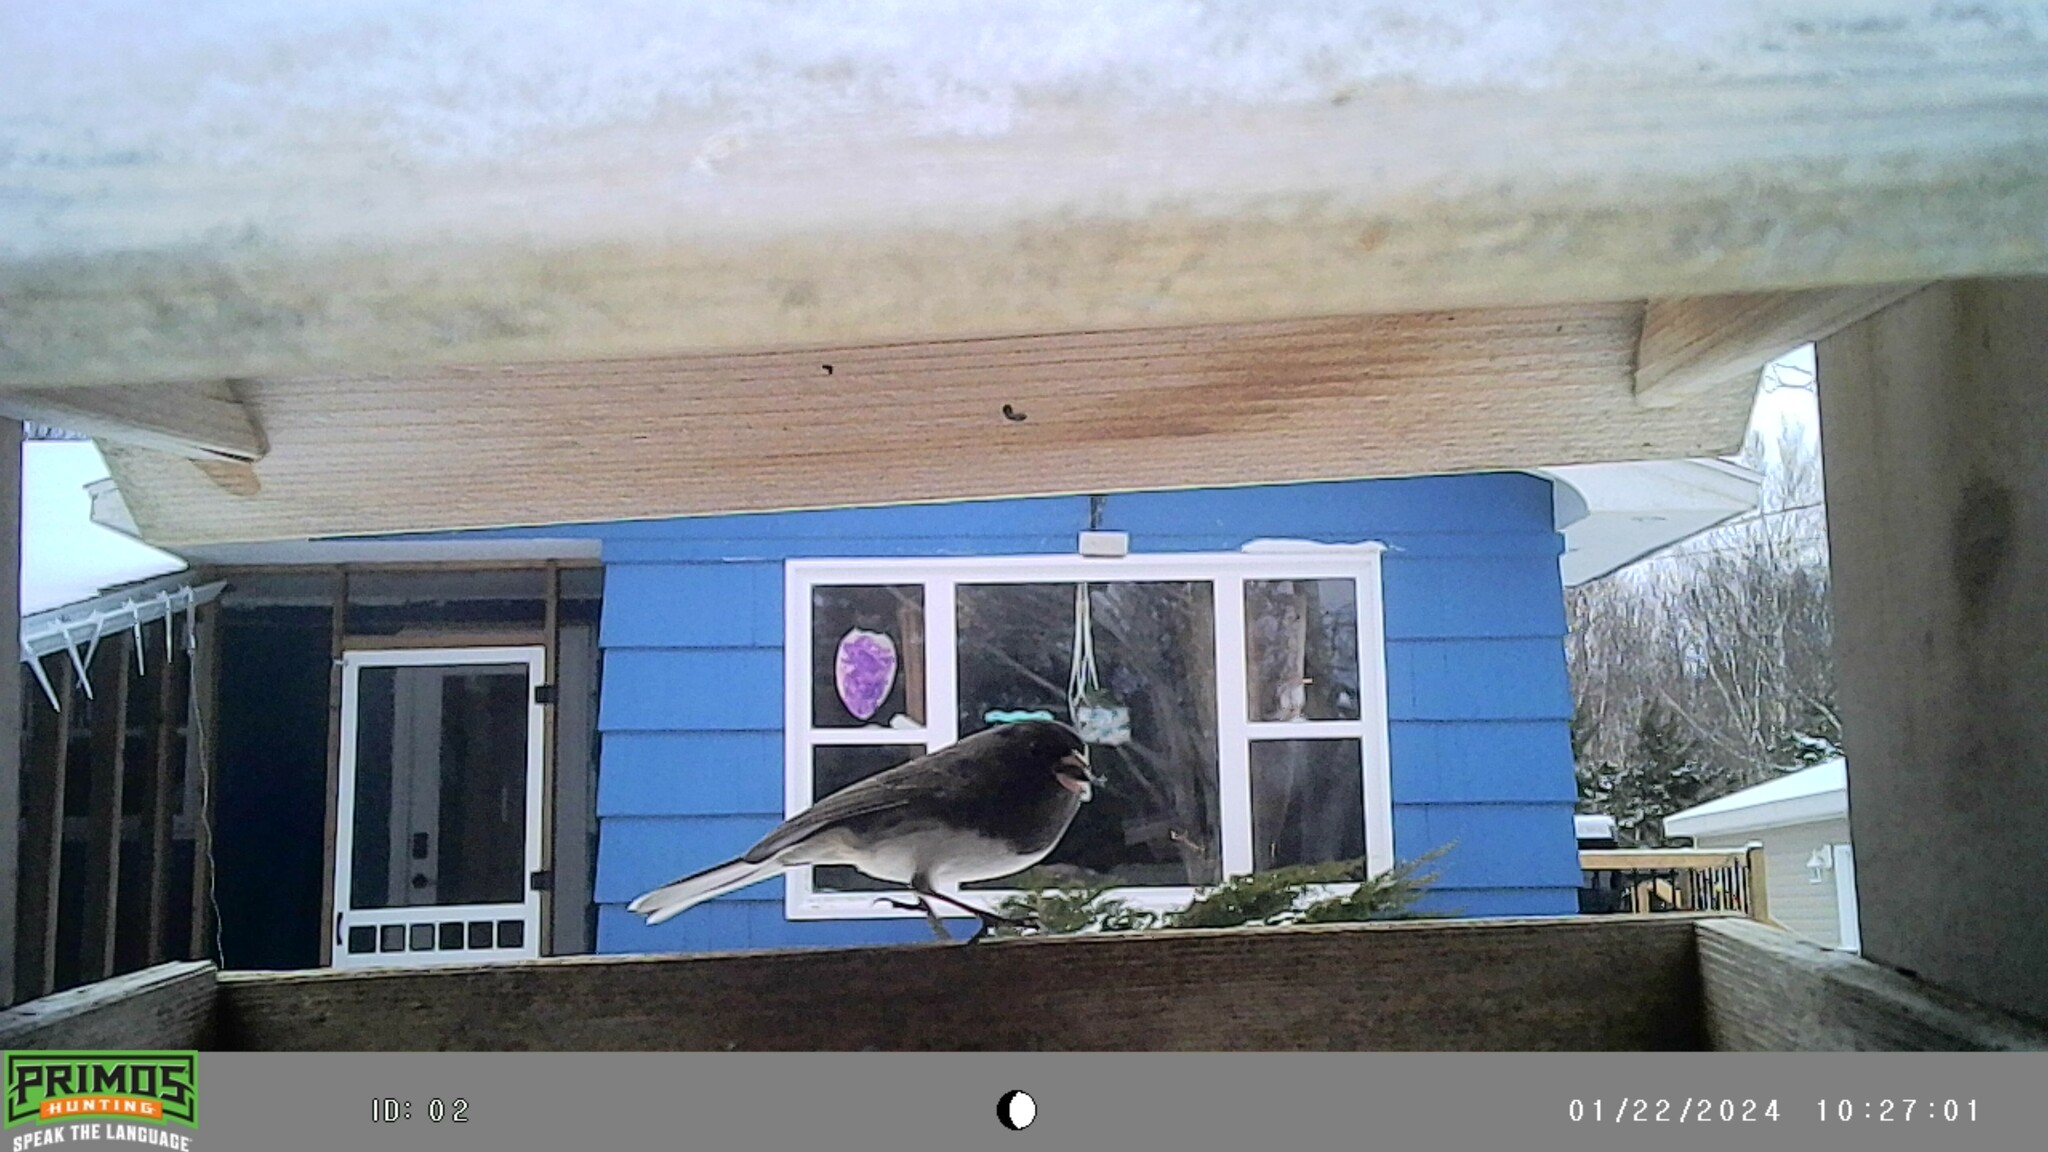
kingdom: Animalia
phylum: Chordata
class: Aves
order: Passeriformes
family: Passerellidae
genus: Junco
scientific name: Junco hyemalis
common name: Dark-eyed junco
